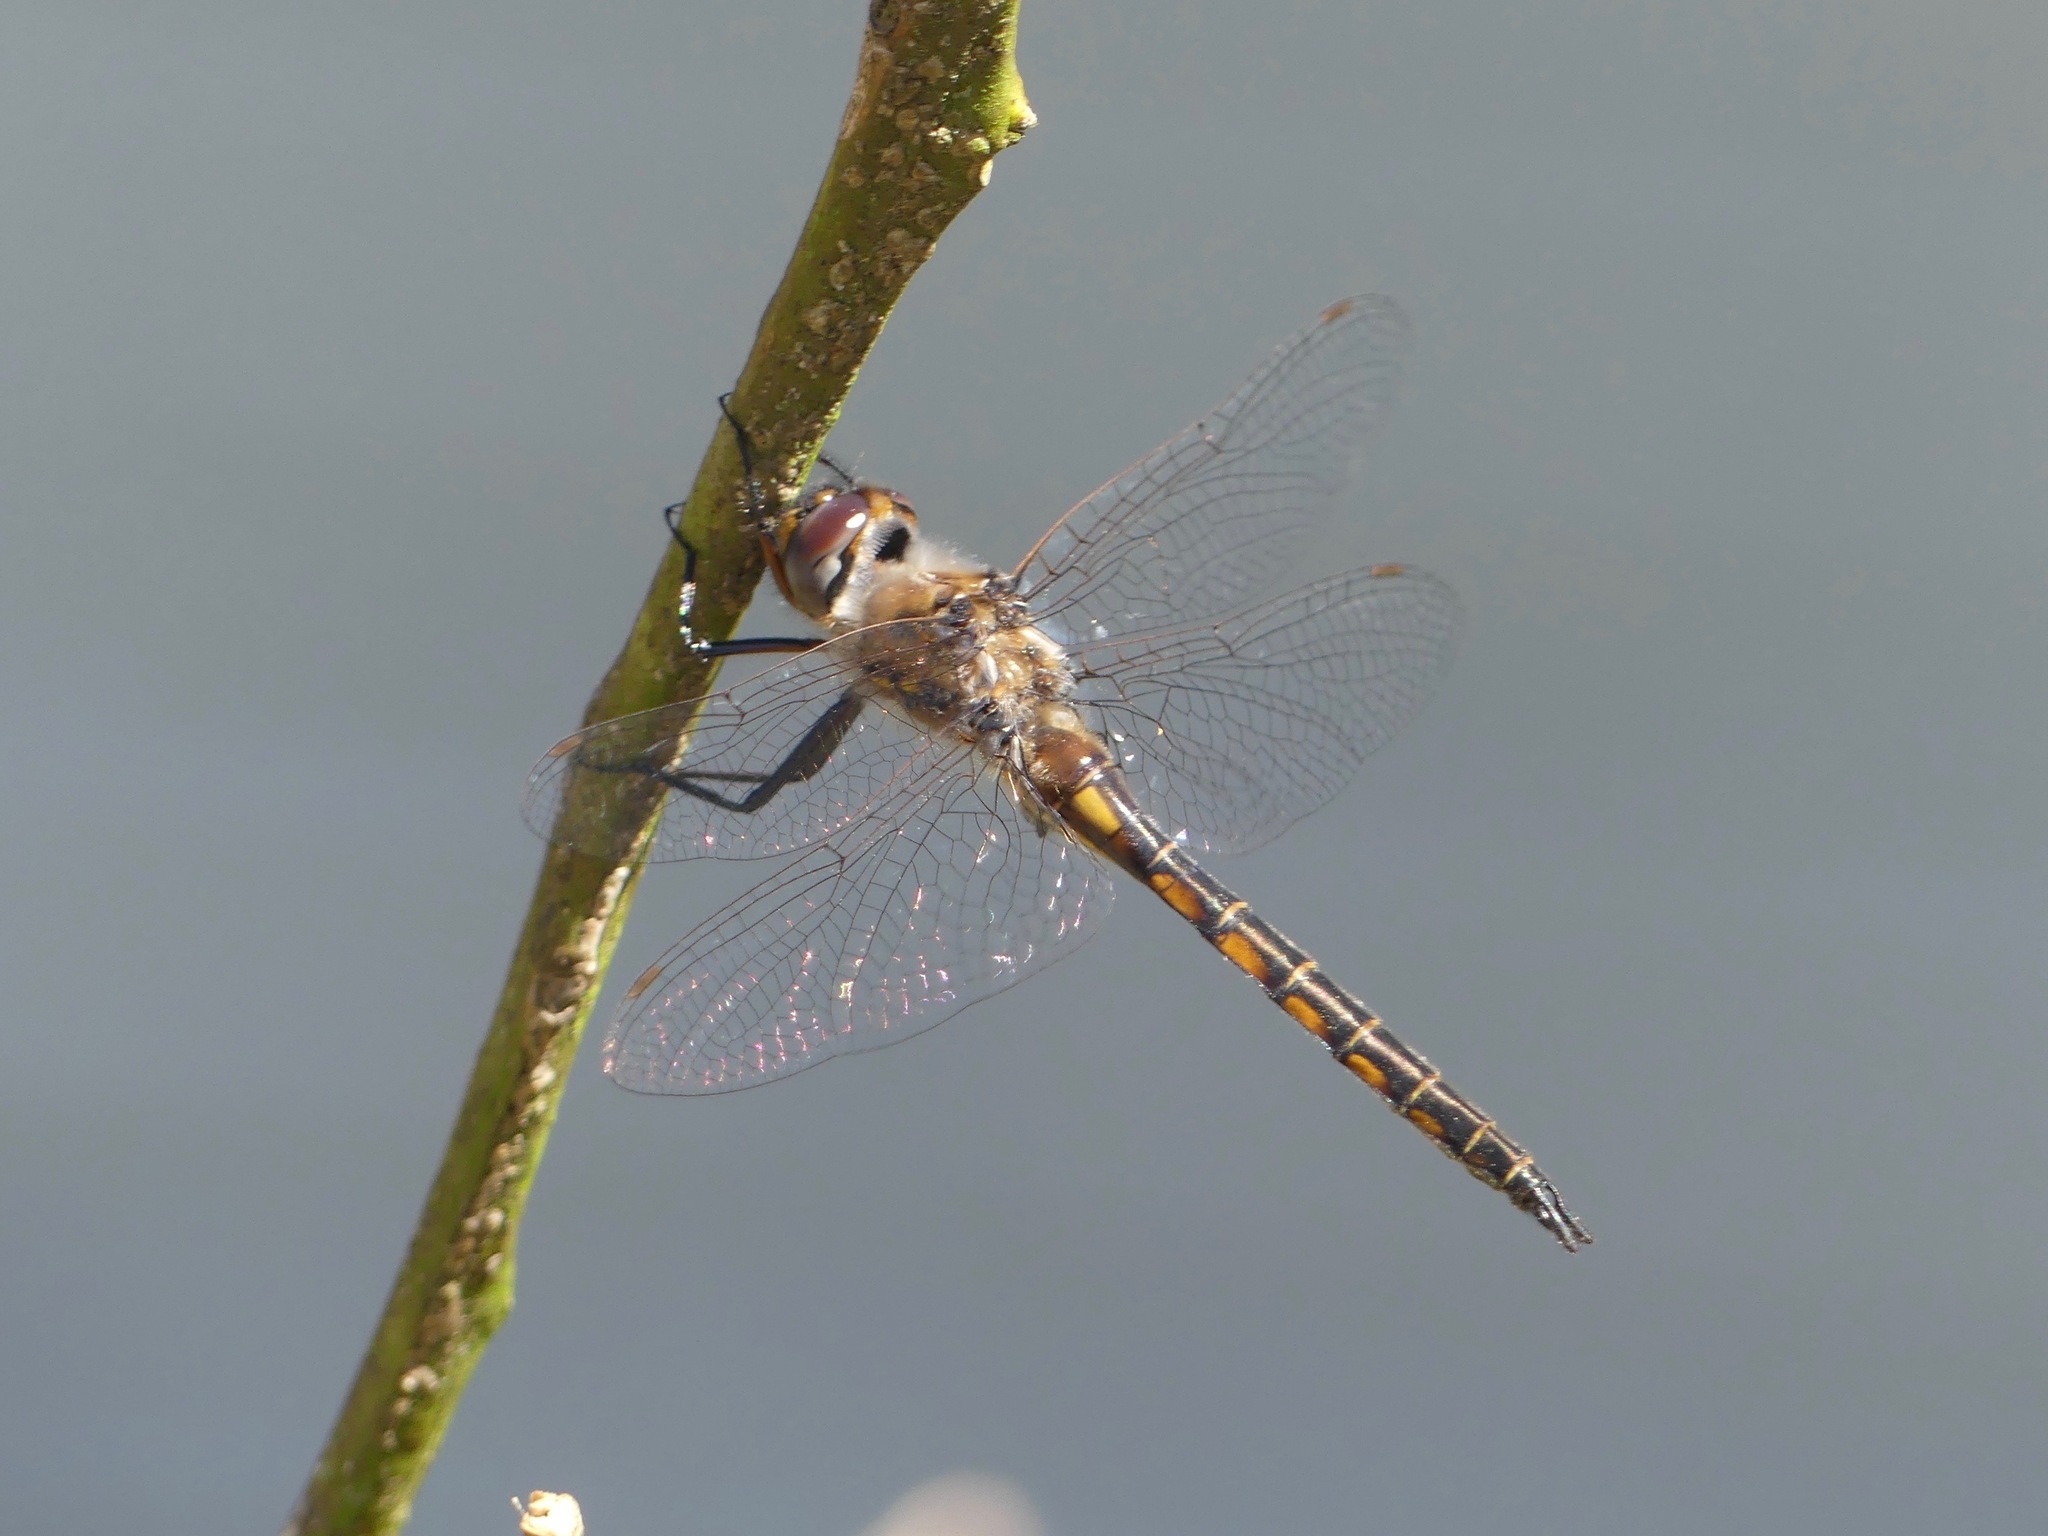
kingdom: Animalia
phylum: Arthropoda
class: Insecta
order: Odonata
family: Corduliidae
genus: Epitheca
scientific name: Epitheca costalis
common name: Slender baskettail
